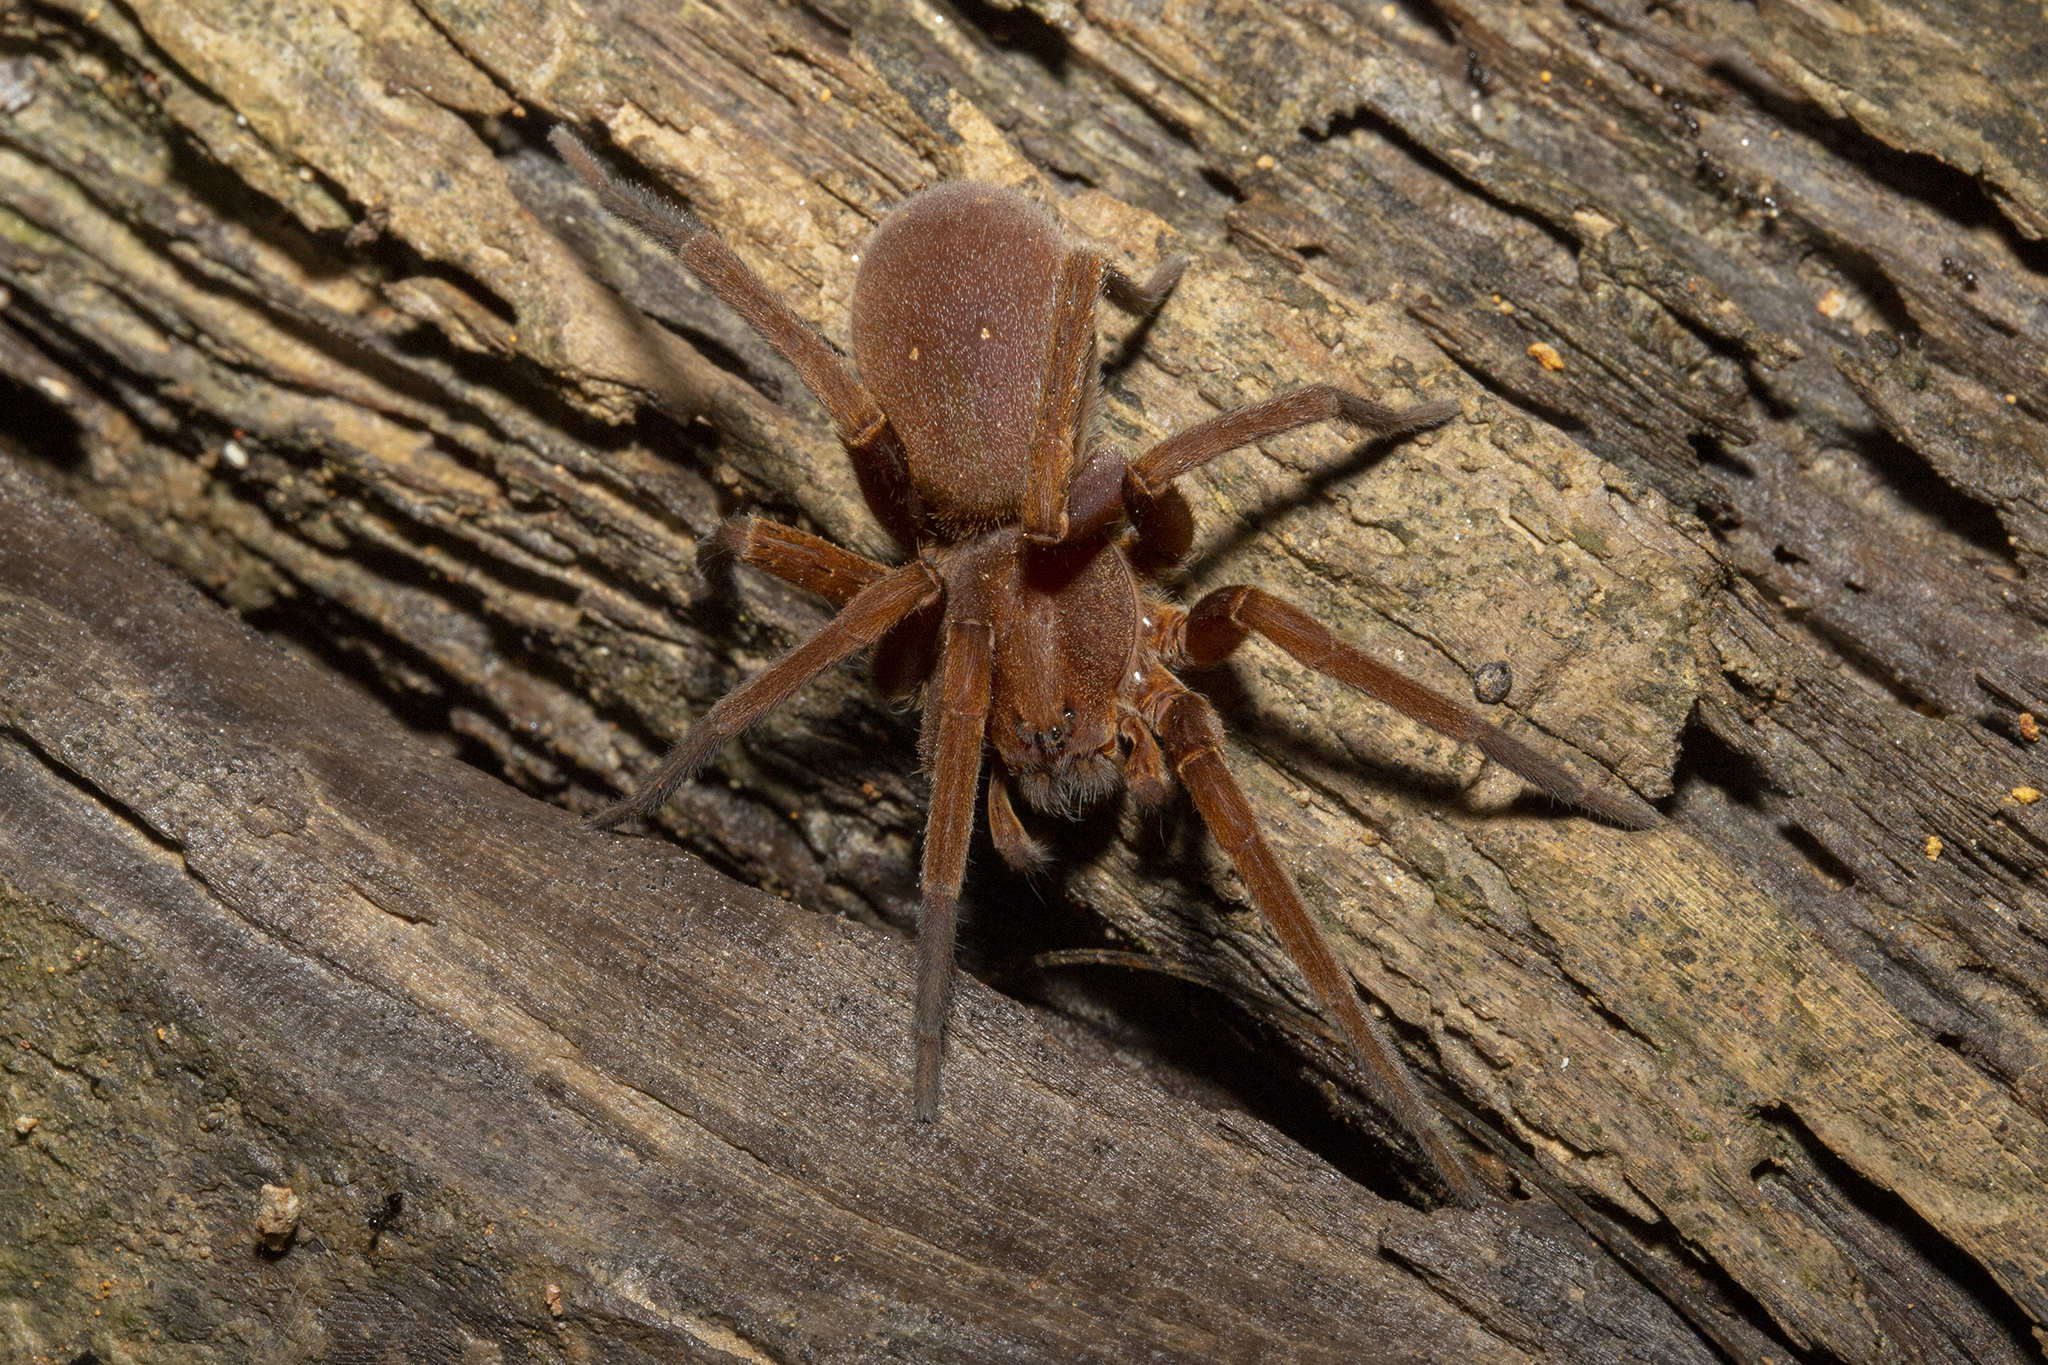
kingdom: Animalia
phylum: Arthropoda
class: Arachnida
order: Araneae
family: Ctenidae
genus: Ancylometes
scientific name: Ancylometes rufus
